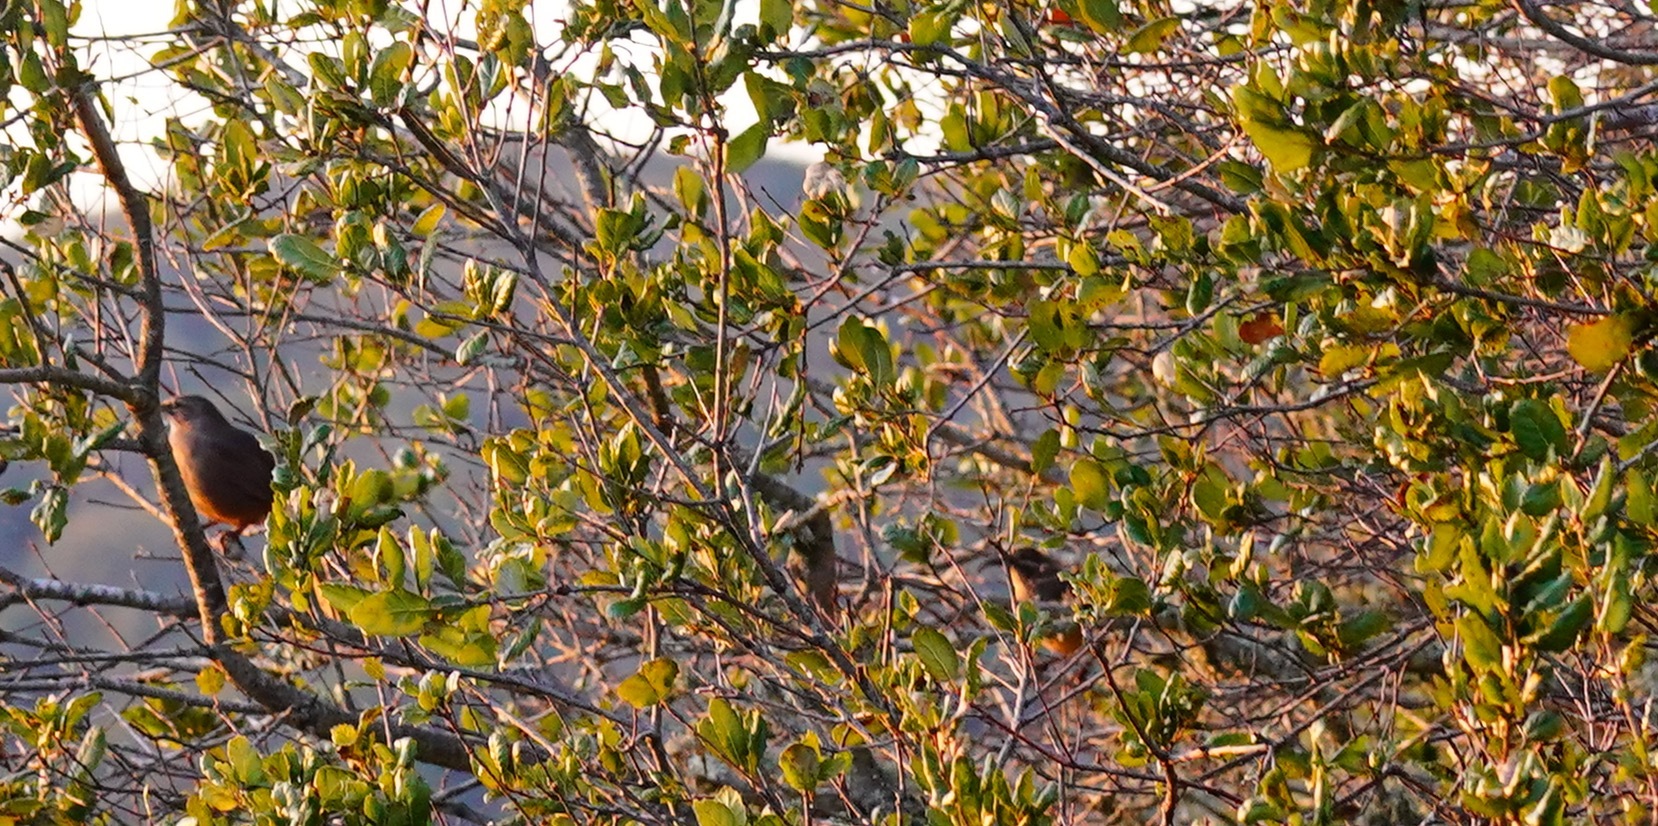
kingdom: Animalia
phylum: Chordata
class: Aves
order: Passeriformes
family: Mimidae
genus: Toxostoma
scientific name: Toxostoma redivivum
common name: California thrasher
